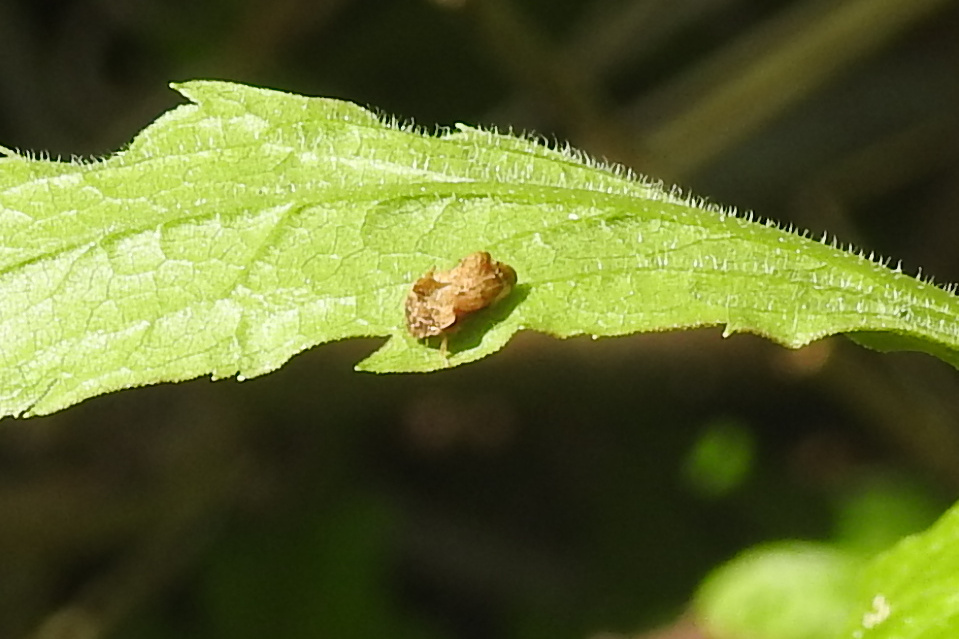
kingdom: Animalia
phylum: Arthropoda
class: Insecta
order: Hemiptera
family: Membracidae
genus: Entylia
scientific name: Entylia carinata
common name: Keeled treehopper
